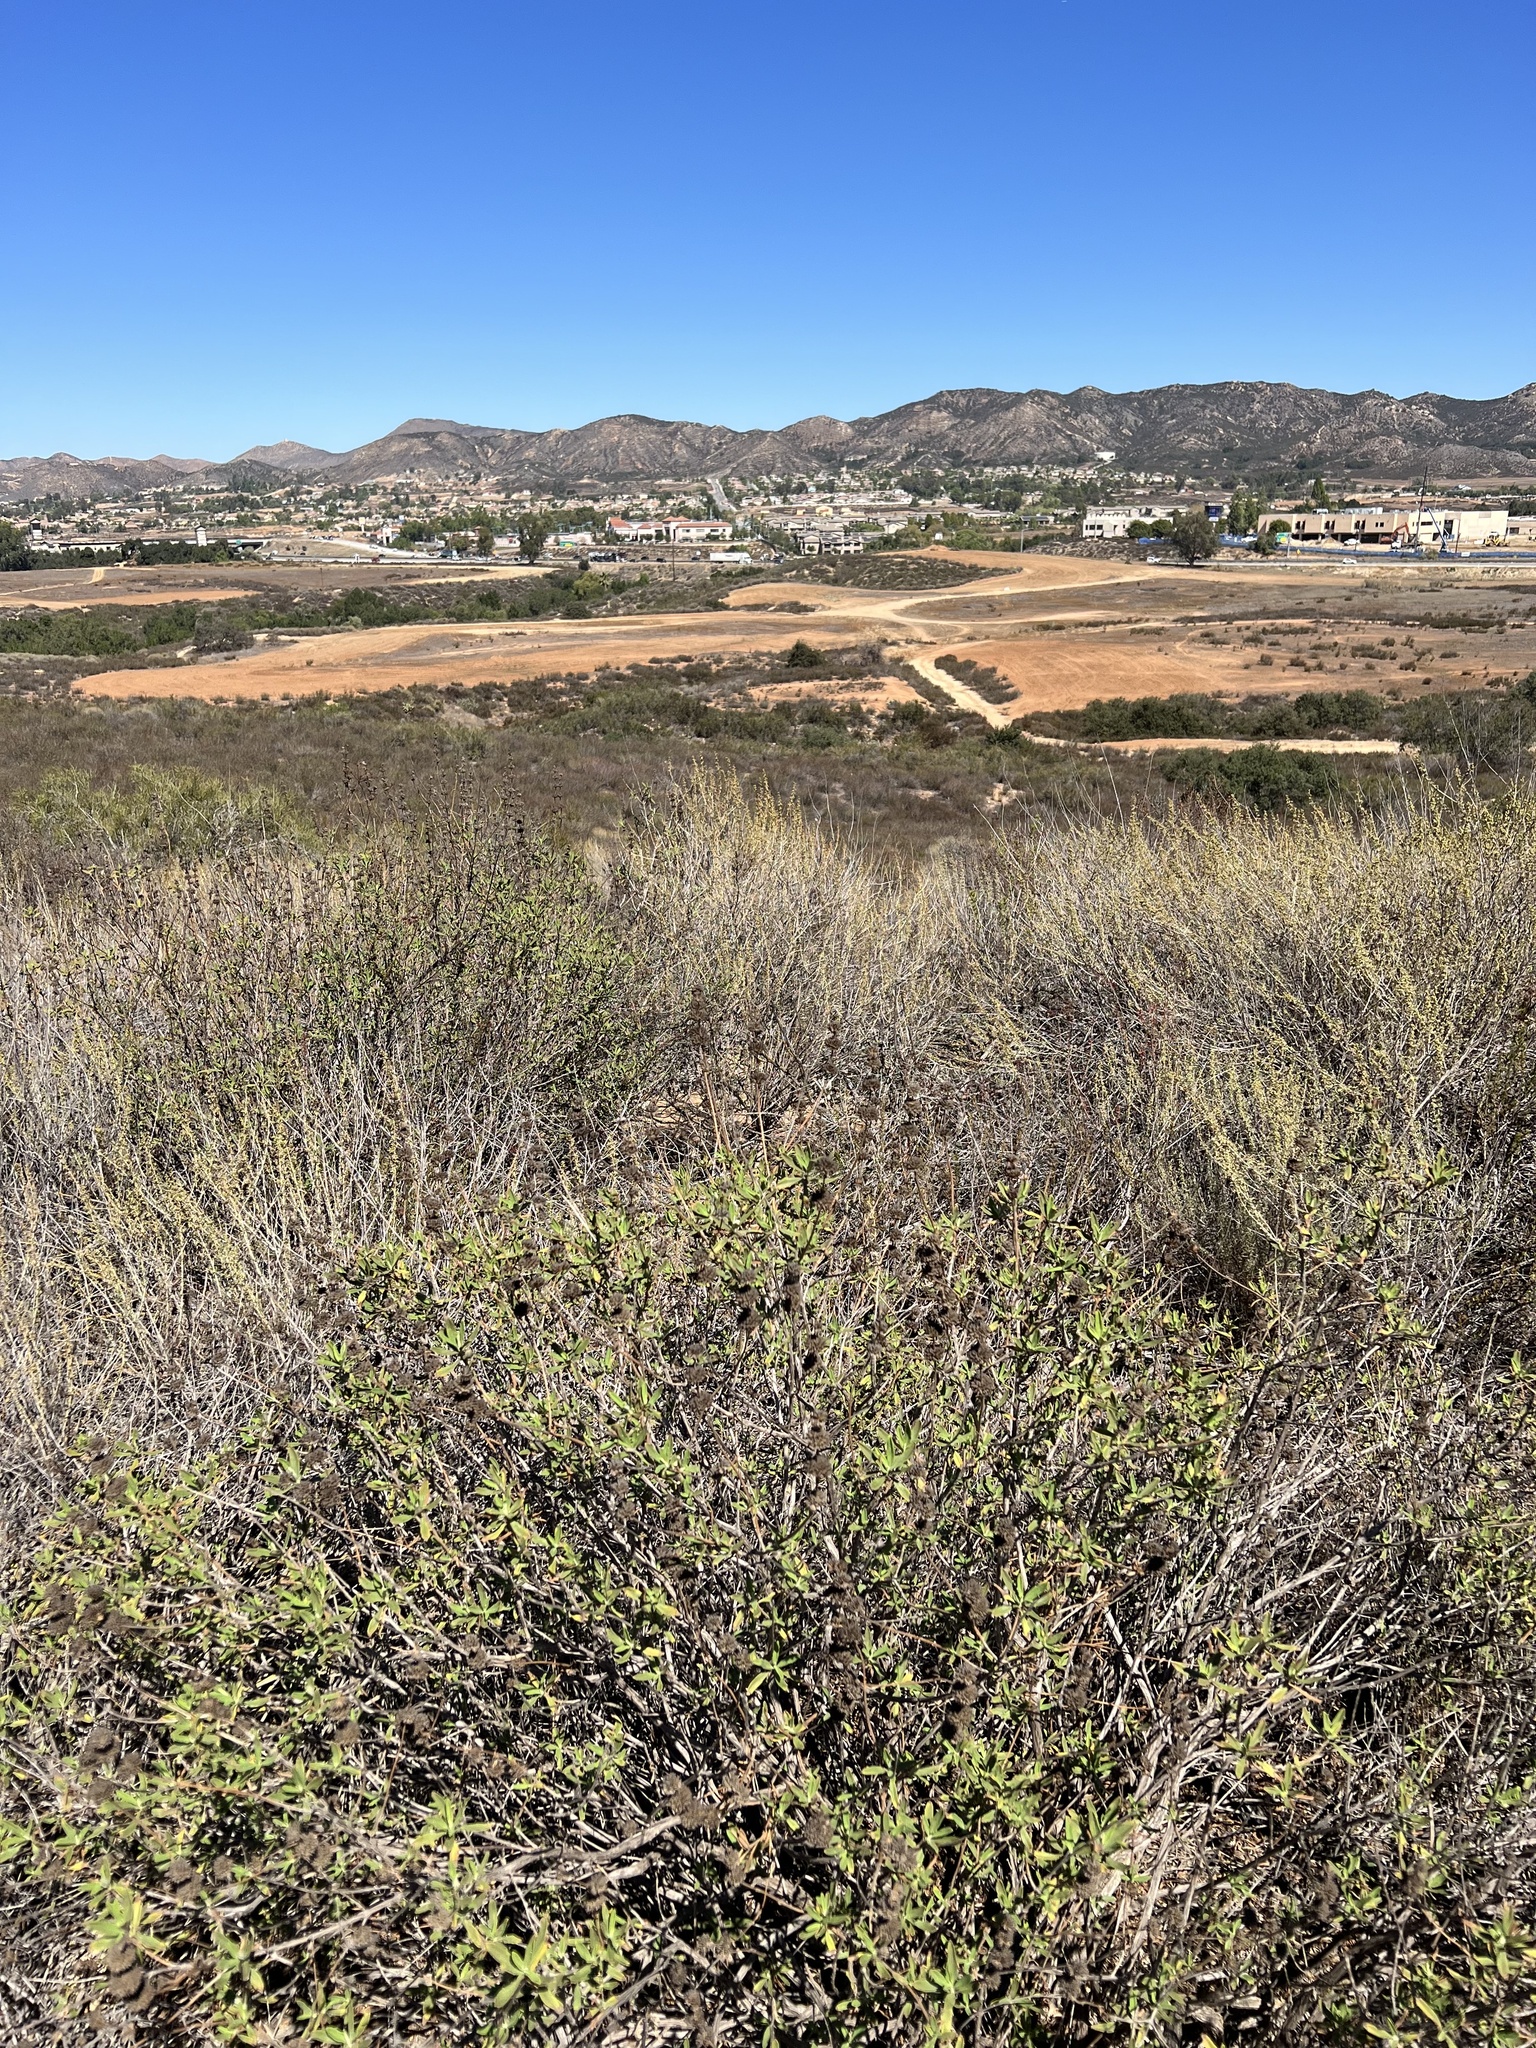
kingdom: Plantae
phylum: Tracheophyta
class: Magnoliopsida
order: Lamiales
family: Lamiaceae
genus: Salvia
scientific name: Salvia mellifera
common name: Black sage
